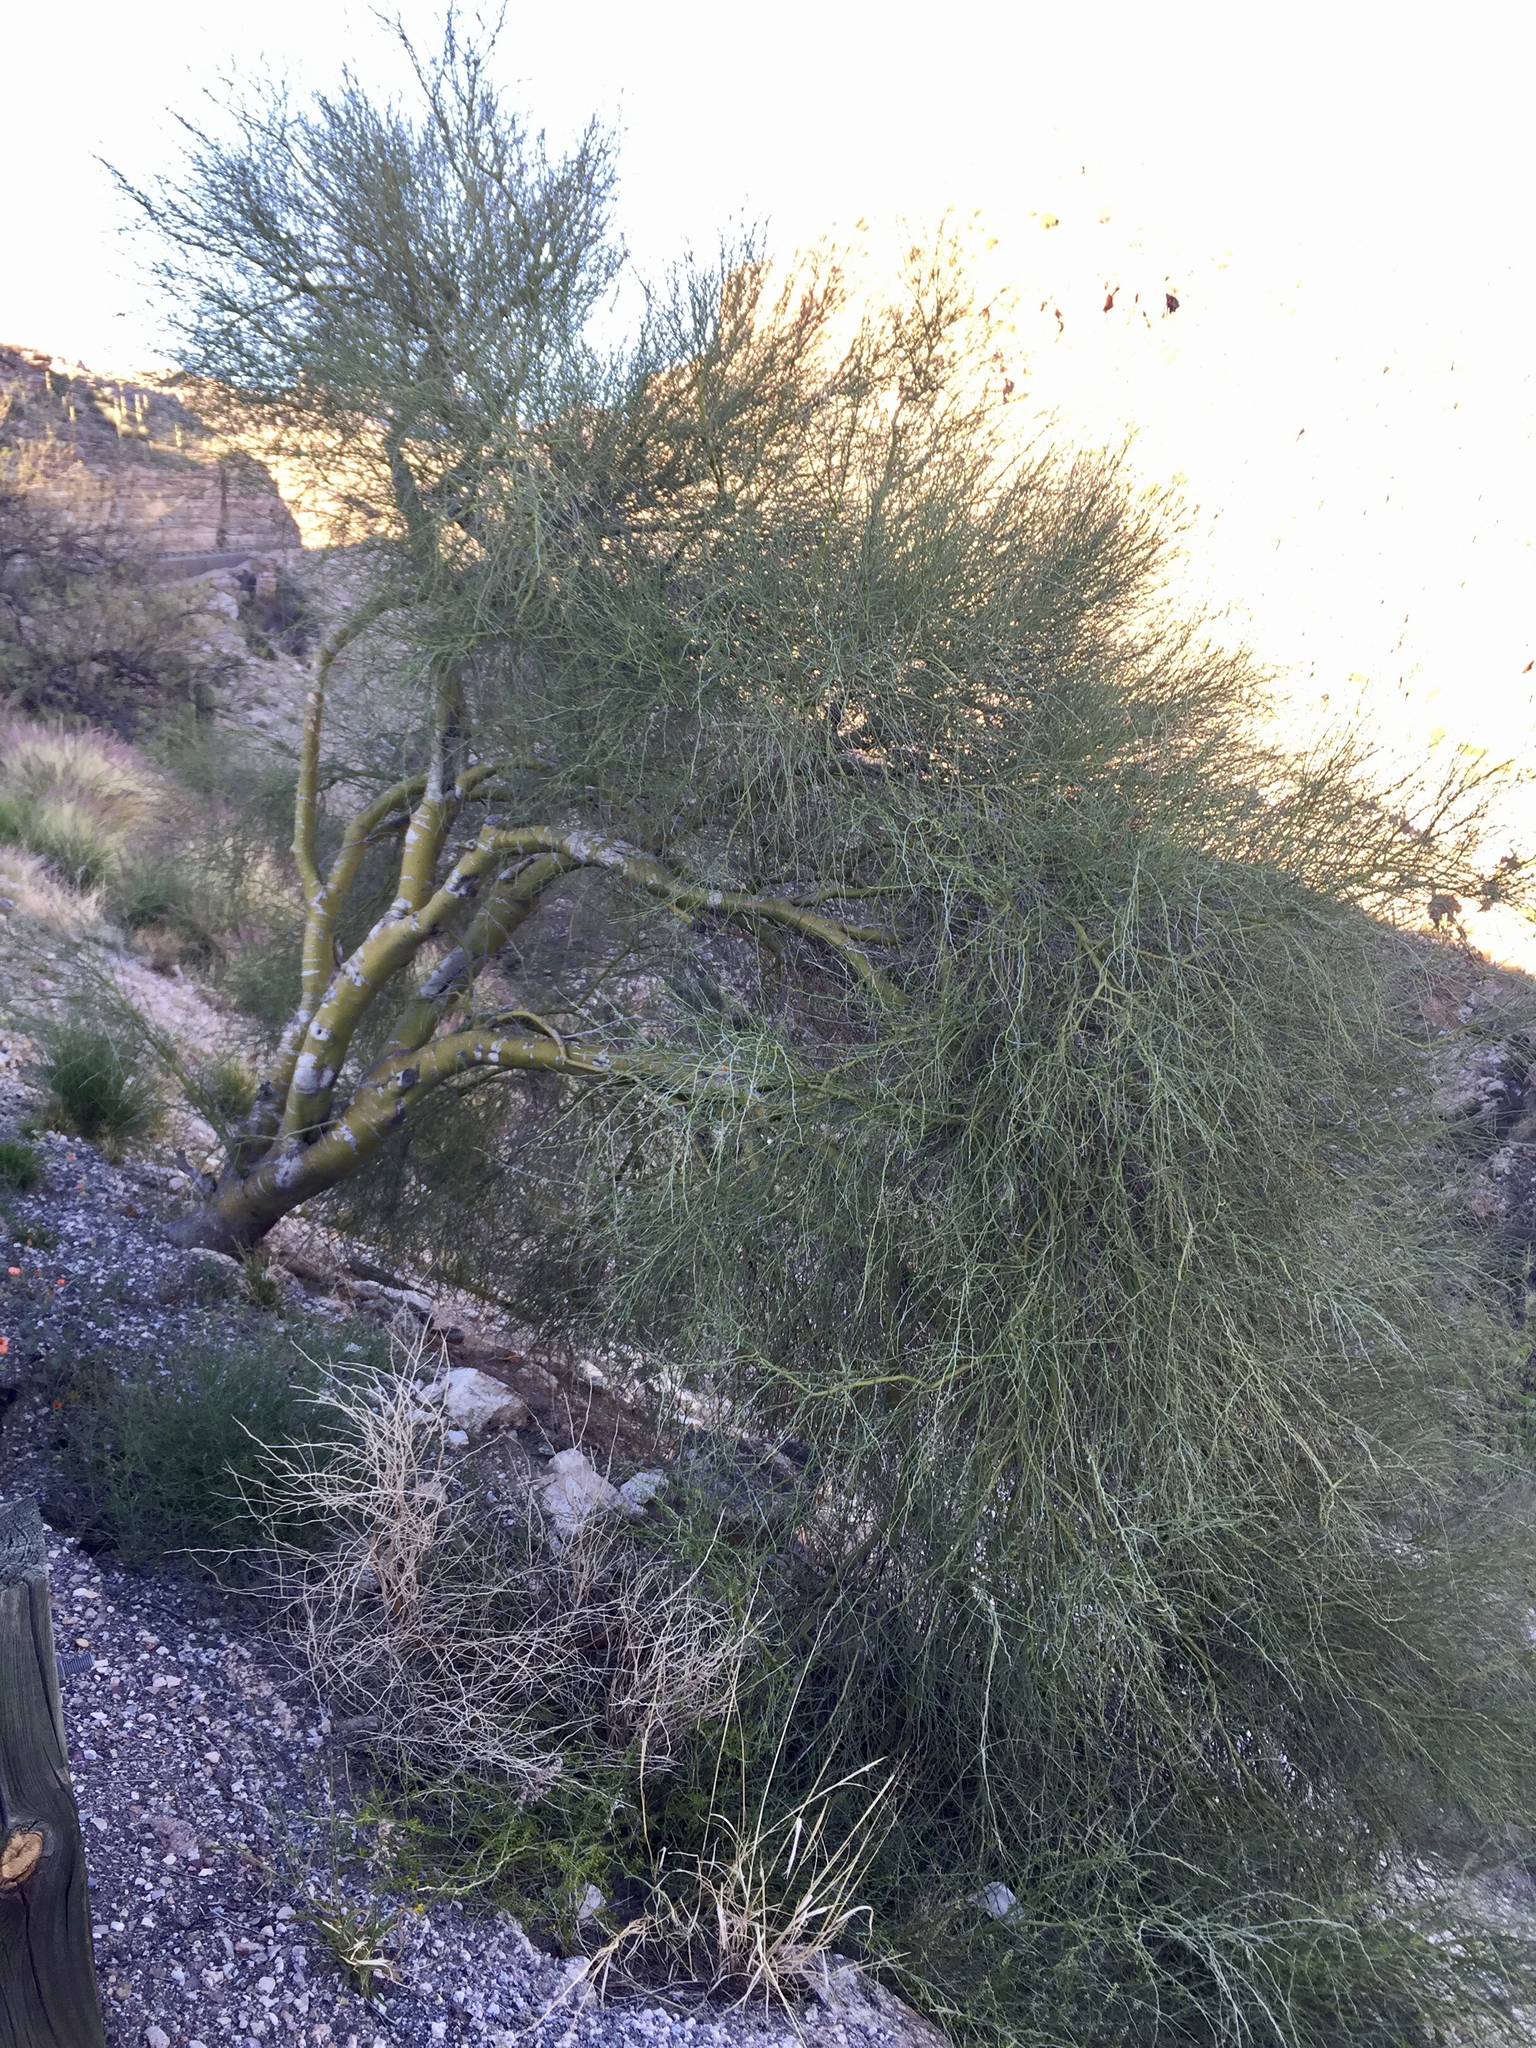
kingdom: Plantae
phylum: Tracheophyta
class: Magnoliopsida
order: Fabales
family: Fabaceae
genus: Parkinsonia
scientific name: Parkinsonia microphylla
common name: Yellow paloverde
